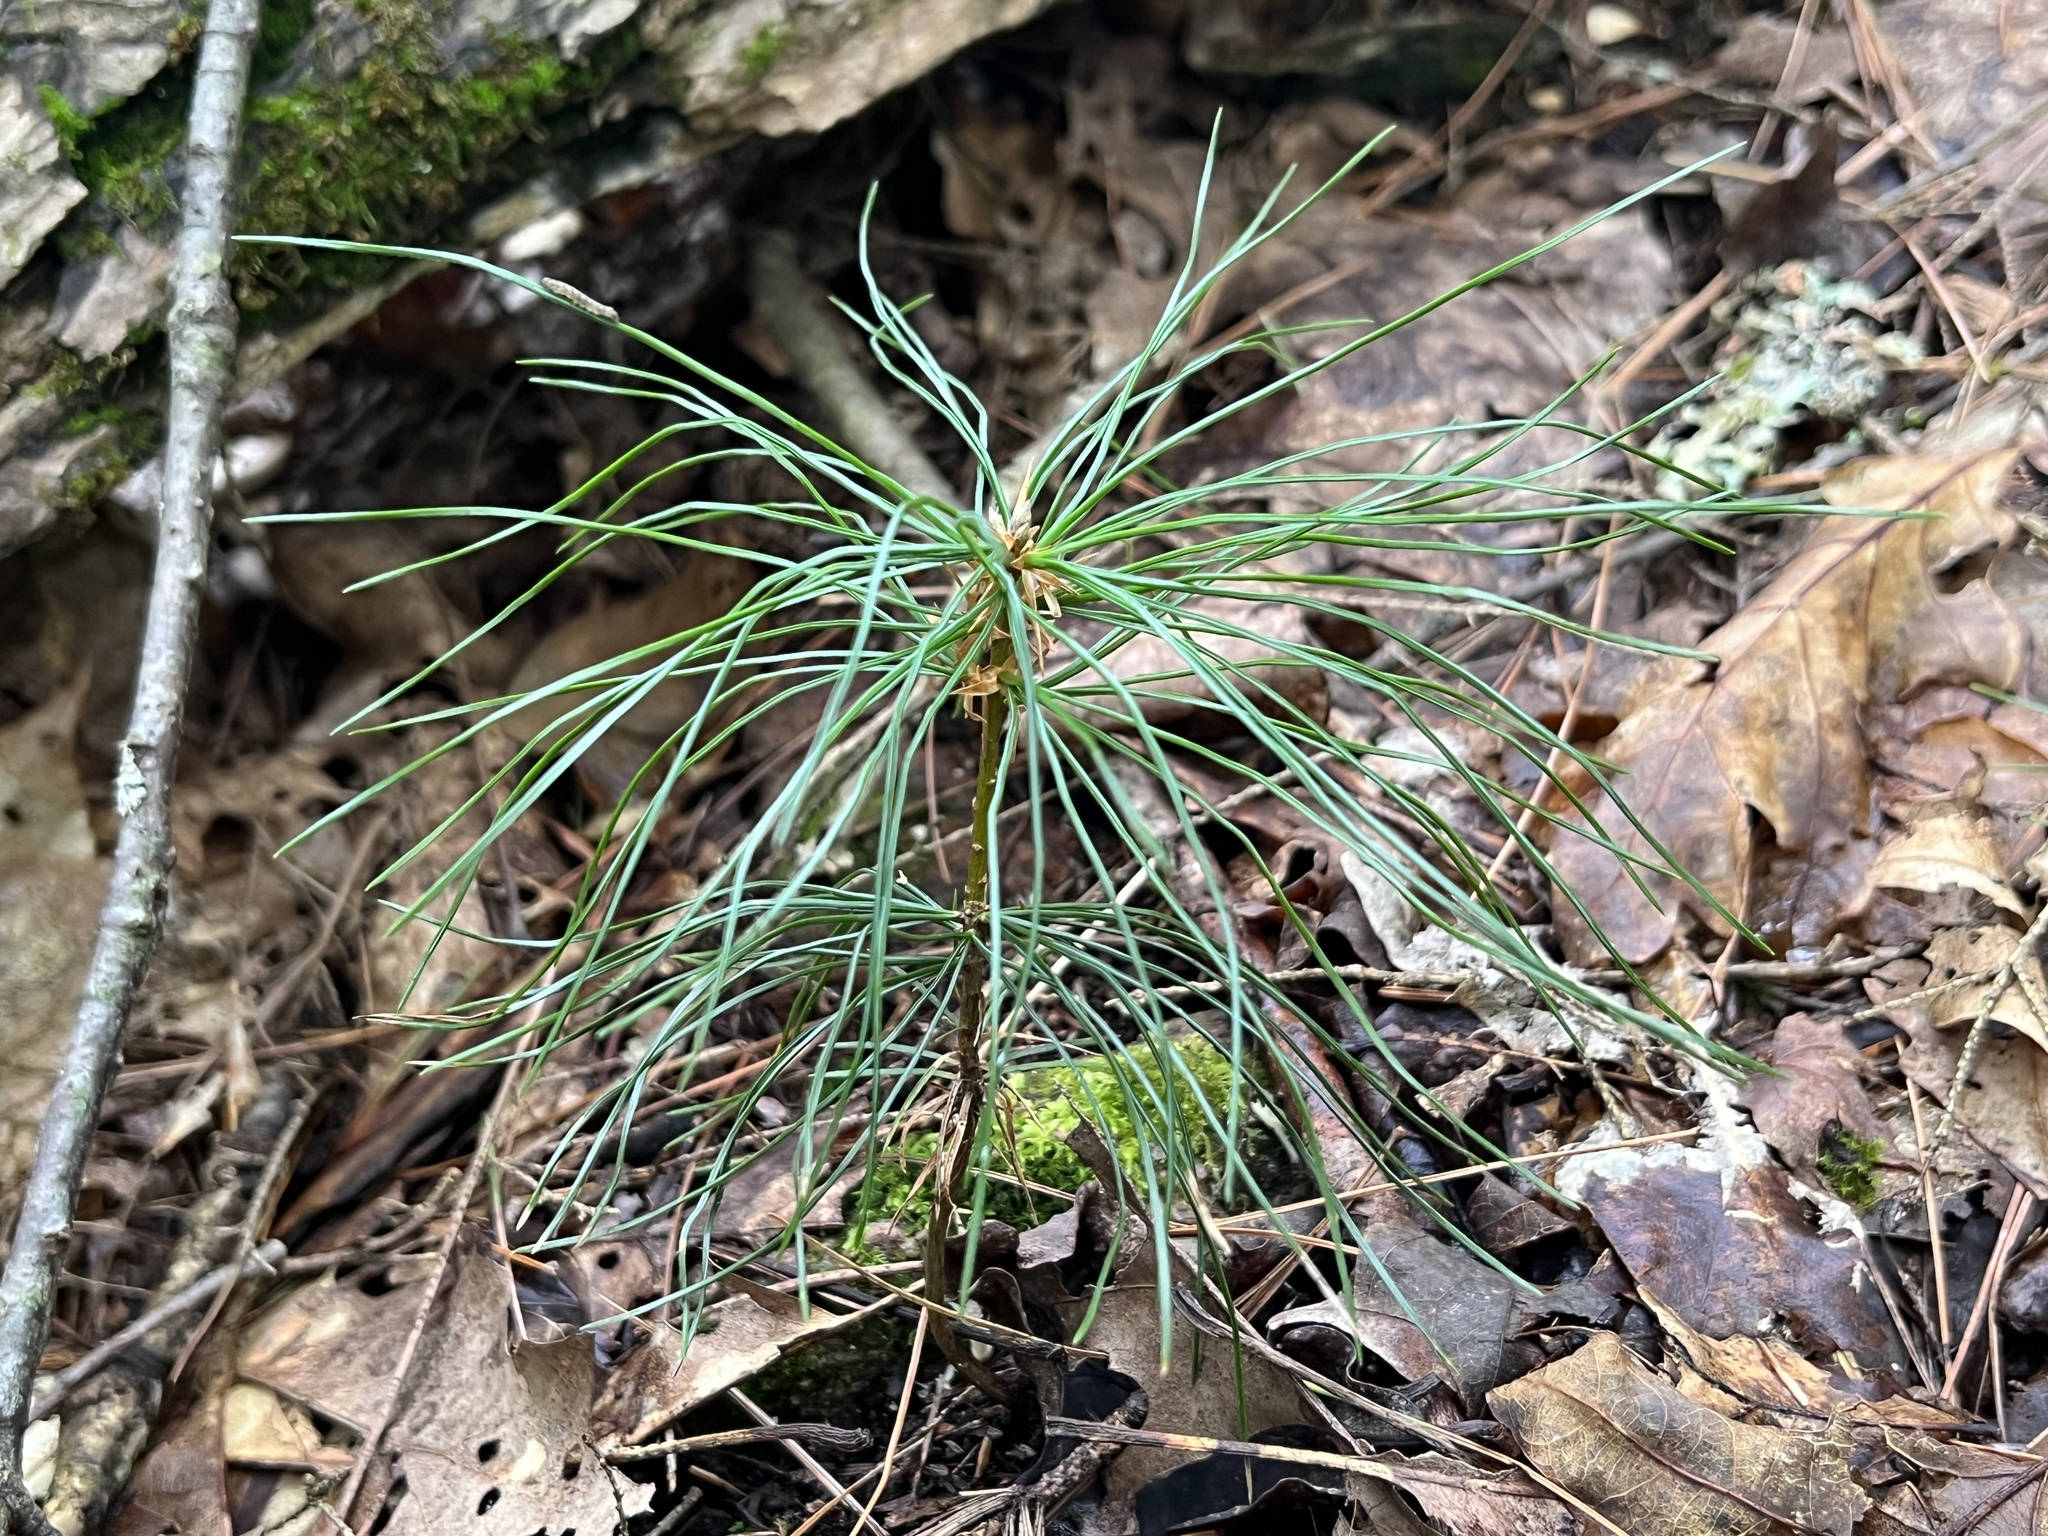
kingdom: Plantae
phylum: Tracheophyta
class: Pinopsida
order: Pinales
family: Pinaceae
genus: Pinus
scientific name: Pinus strobus
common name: Weymouth pine
